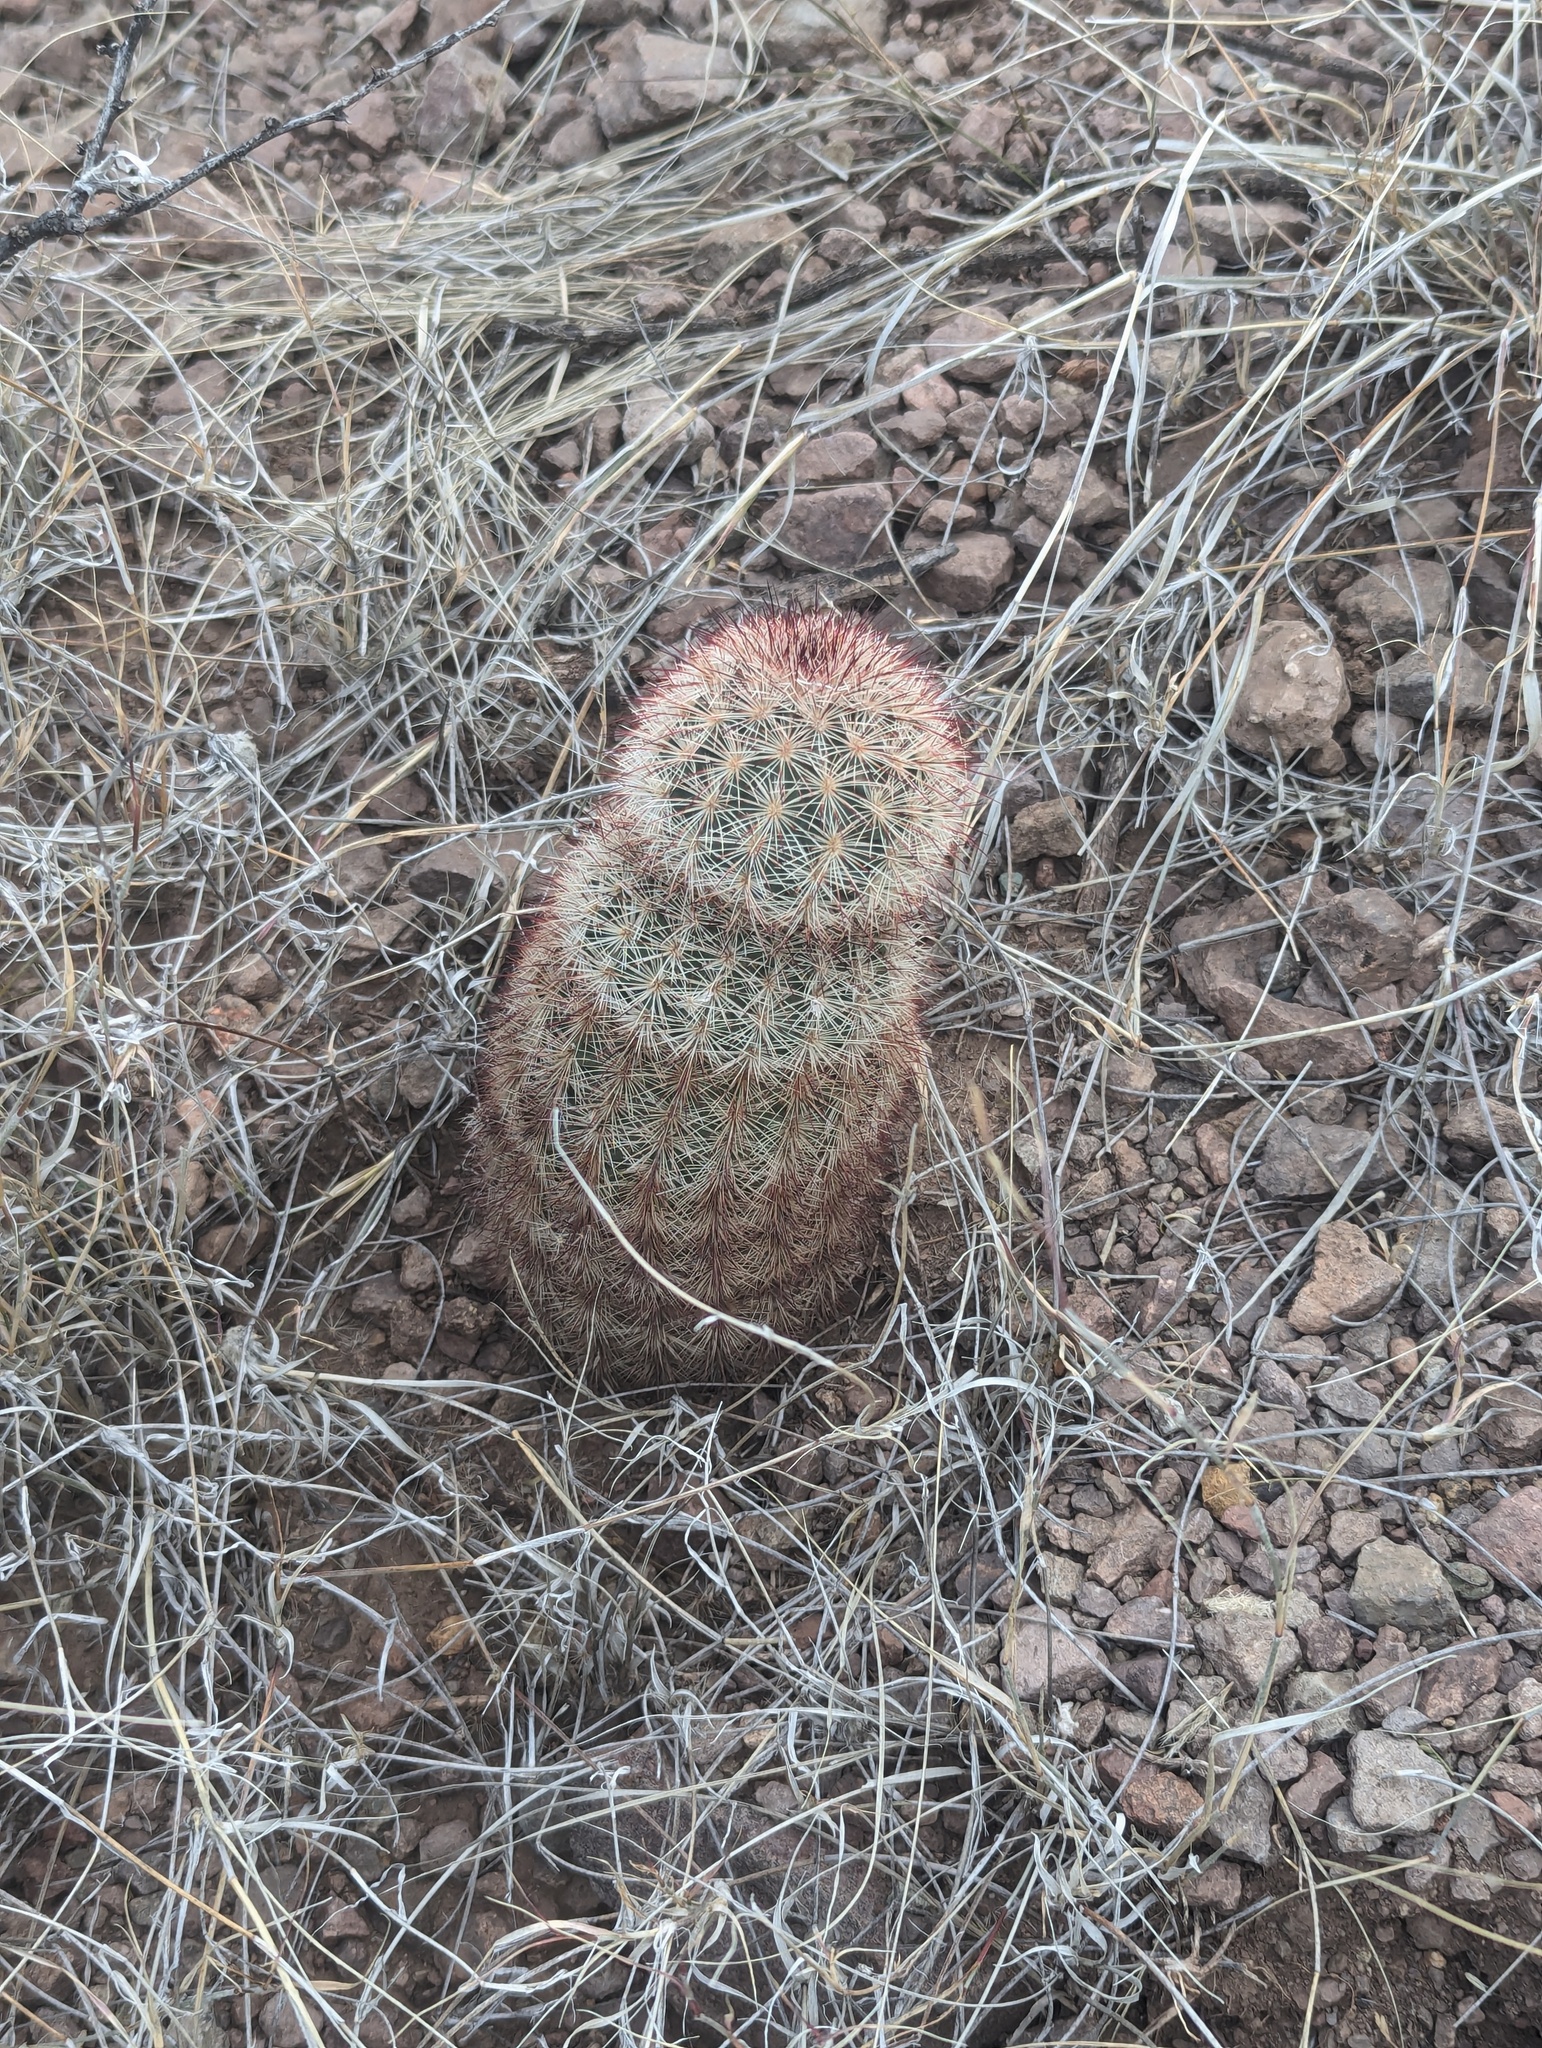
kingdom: Plantae
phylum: Tracheophyta
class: Magnoliopsida
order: Caryophyllales
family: Cactaceae
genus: Echinocereus
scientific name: Echinocereus russanthus
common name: Brownspine hedgehog cactus
